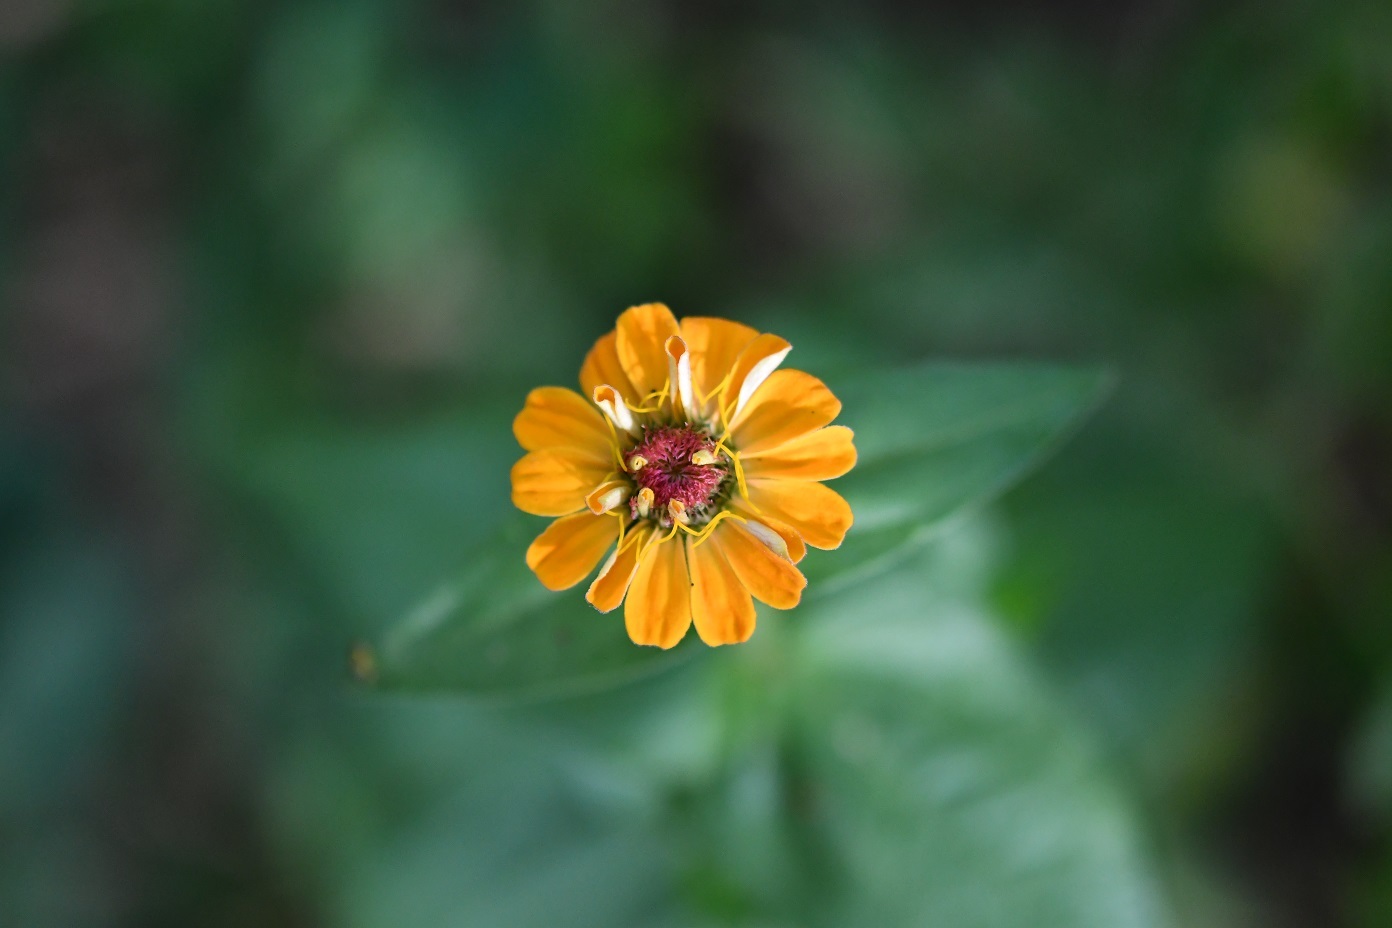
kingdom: Plantae
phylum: Tracheophyta
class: Magnoliopsida
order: Asterales
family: Asteraceae
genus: Zinnia
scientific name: Zinnia elegans
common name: Youth-and-age
